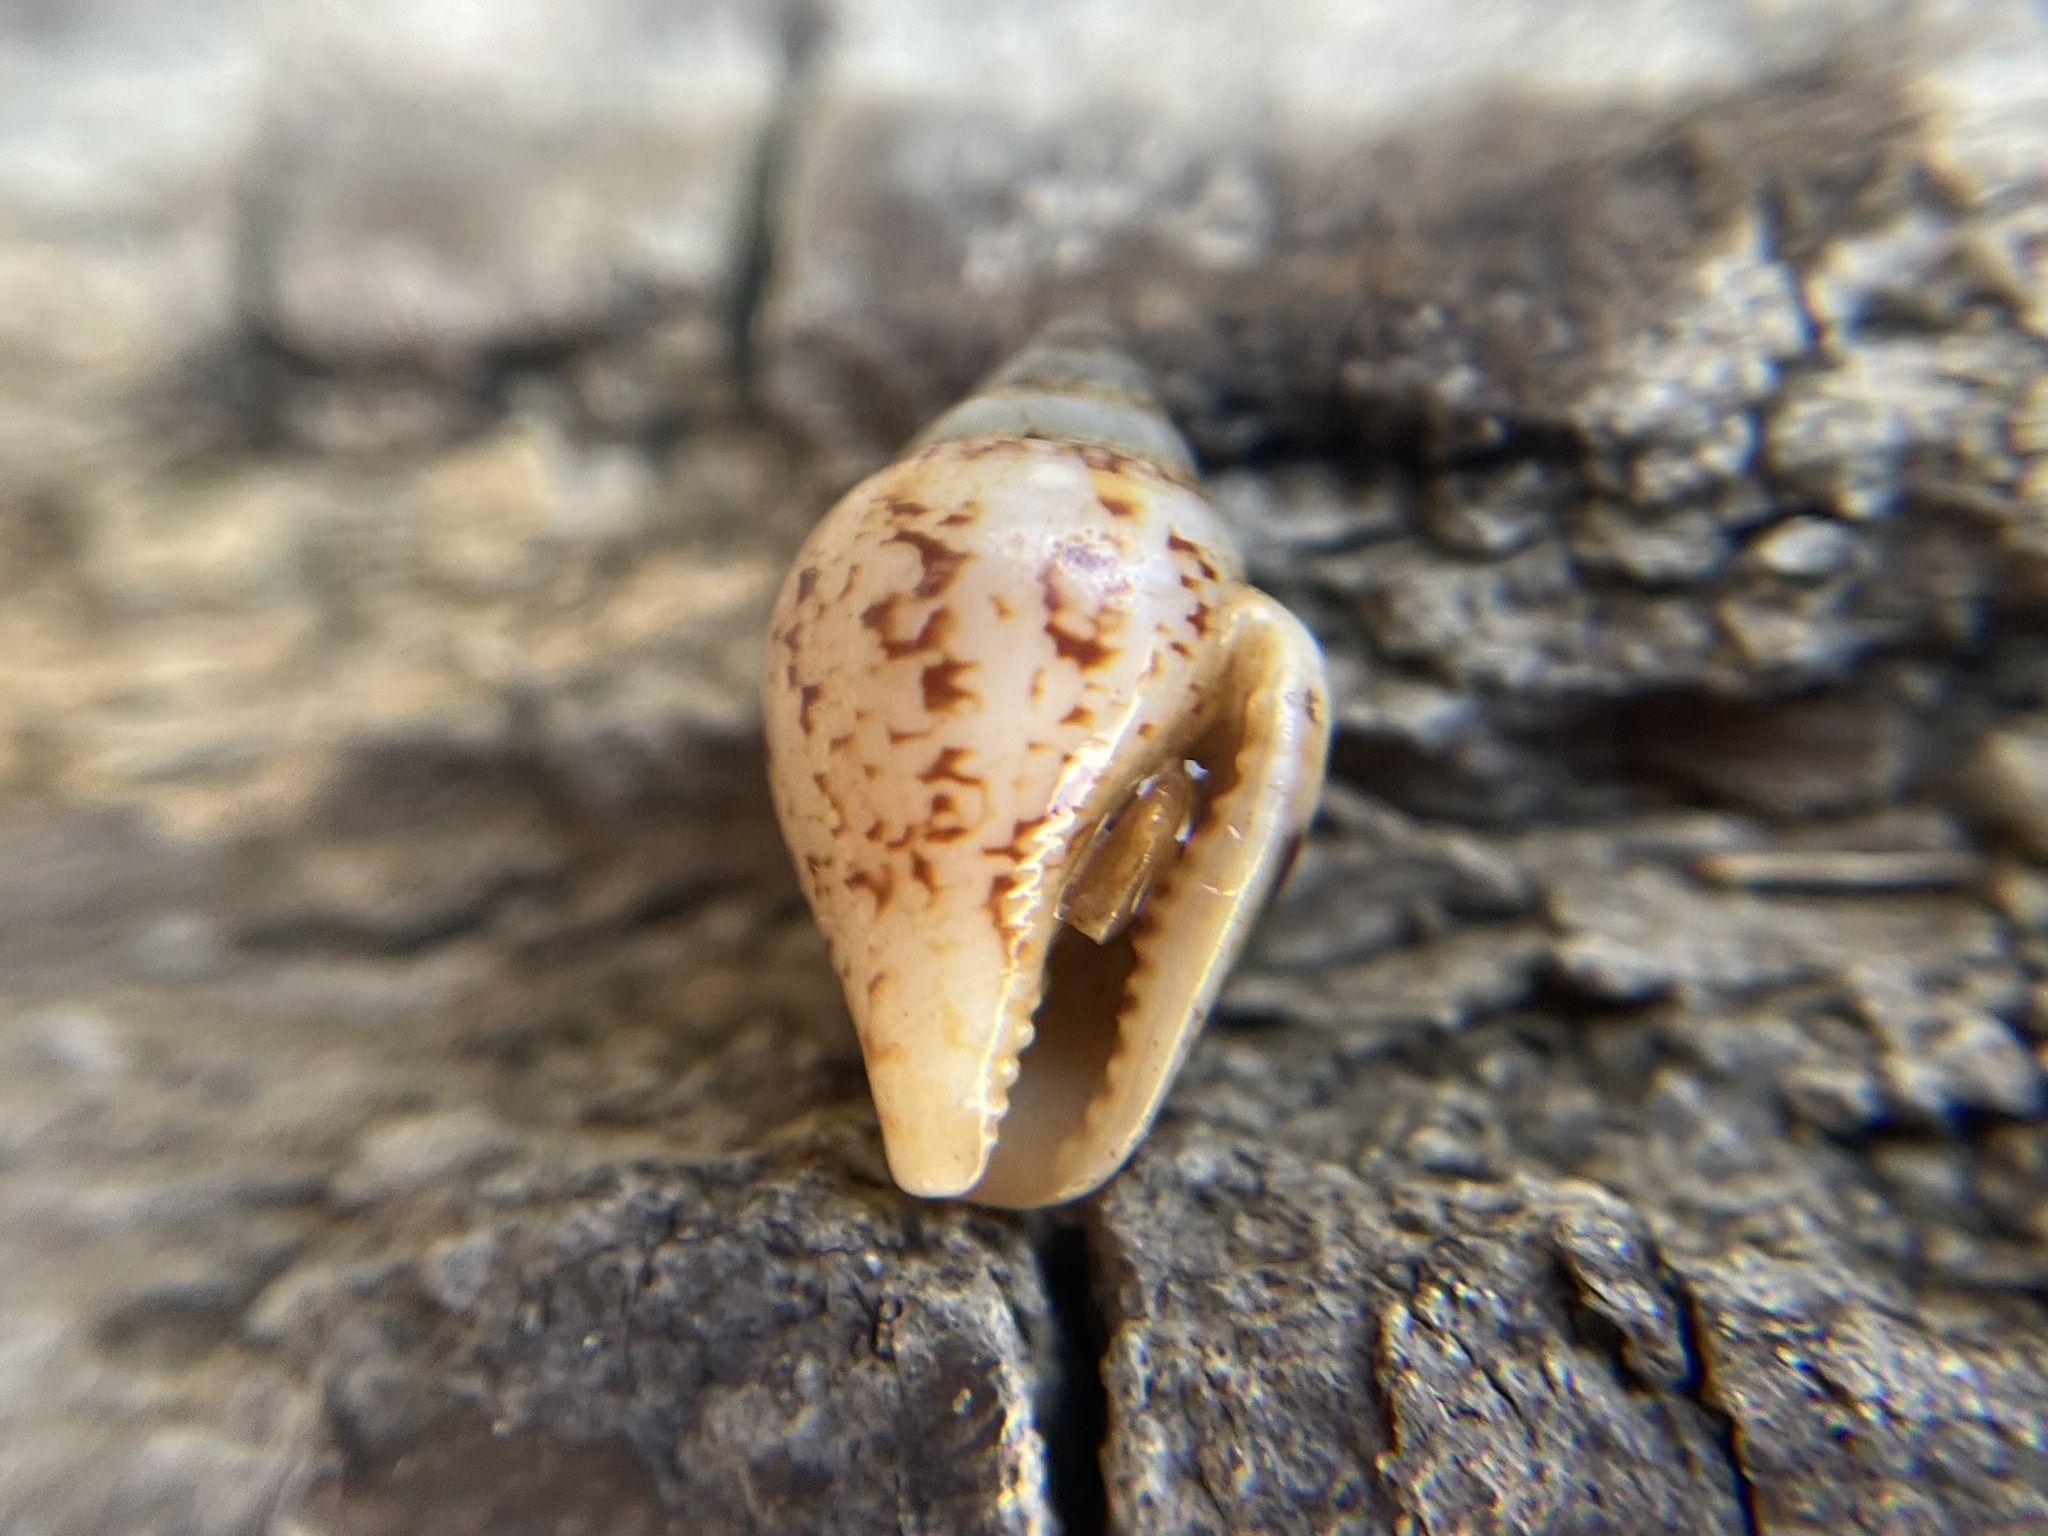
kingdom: Animalia
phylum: Mollusca
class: Gastropoda
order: Neogastropoda
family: Columbellidae
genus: Columbella
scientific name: Columbella rustica
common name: Rustic dove shell
